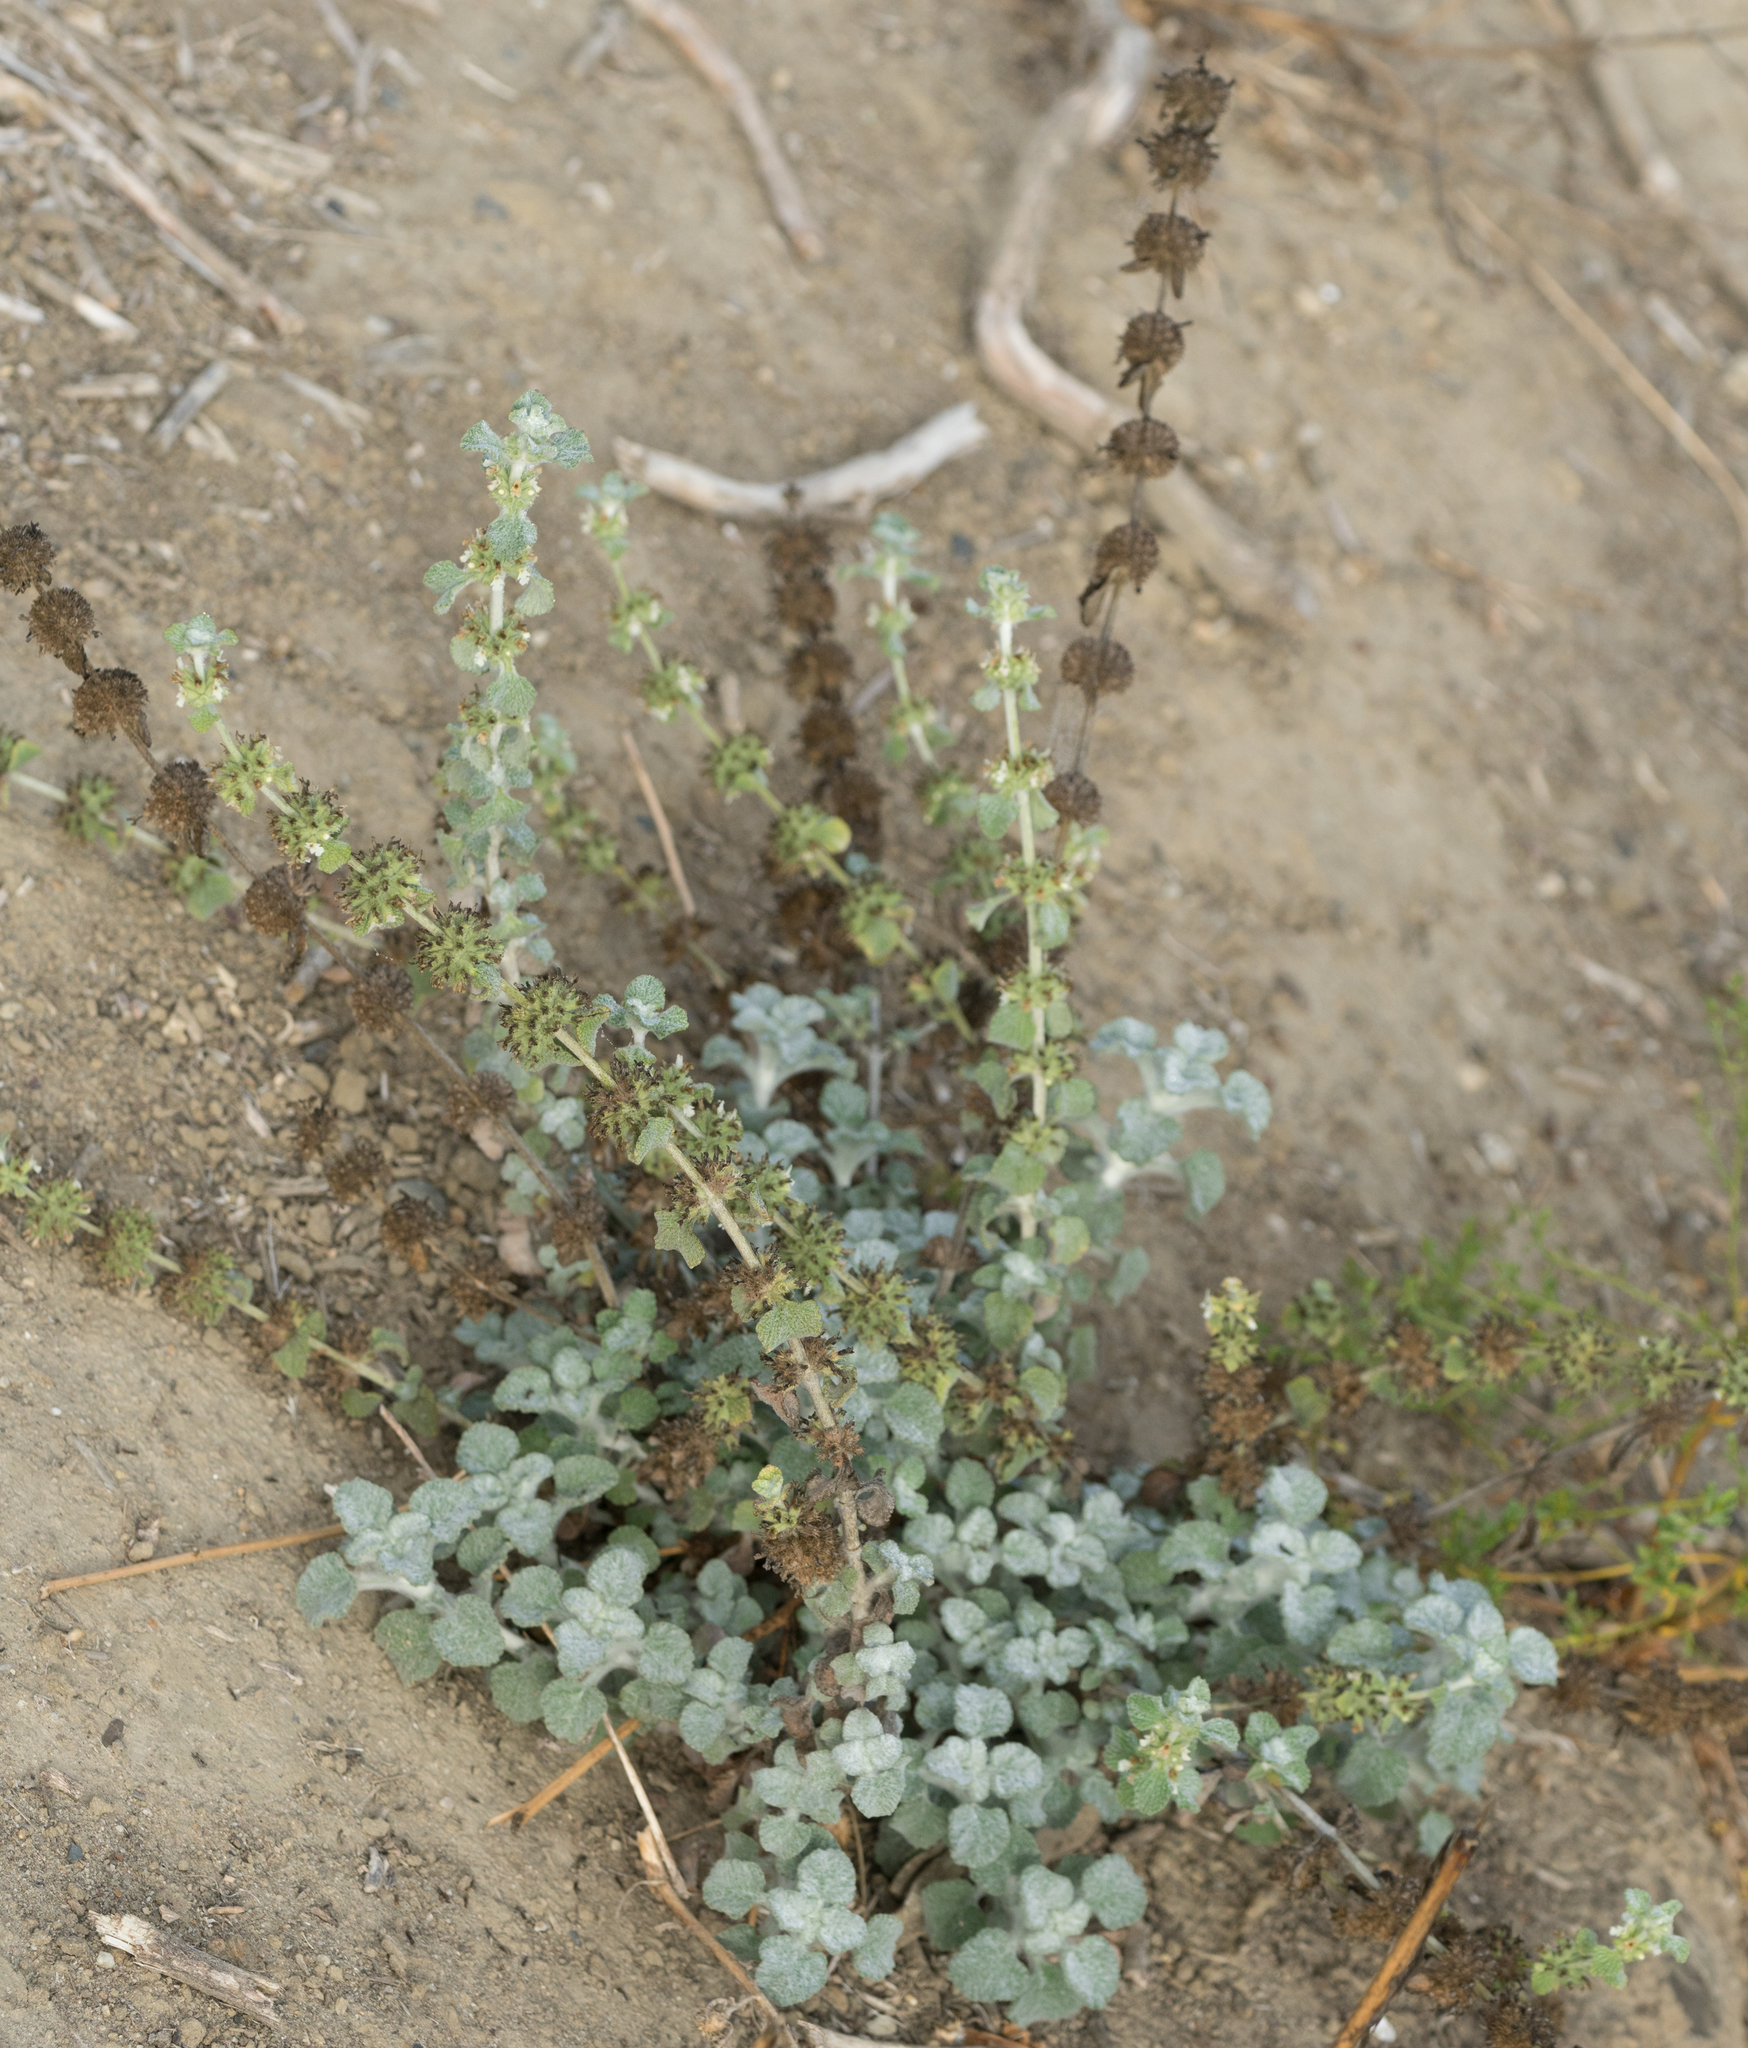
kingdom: Plantae
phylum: Tracheophyta
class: Magnoliopsida
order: Lamiales
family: Lamiaceae
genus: Marrubium
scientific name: Marrubium vulgare
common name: Horehound
